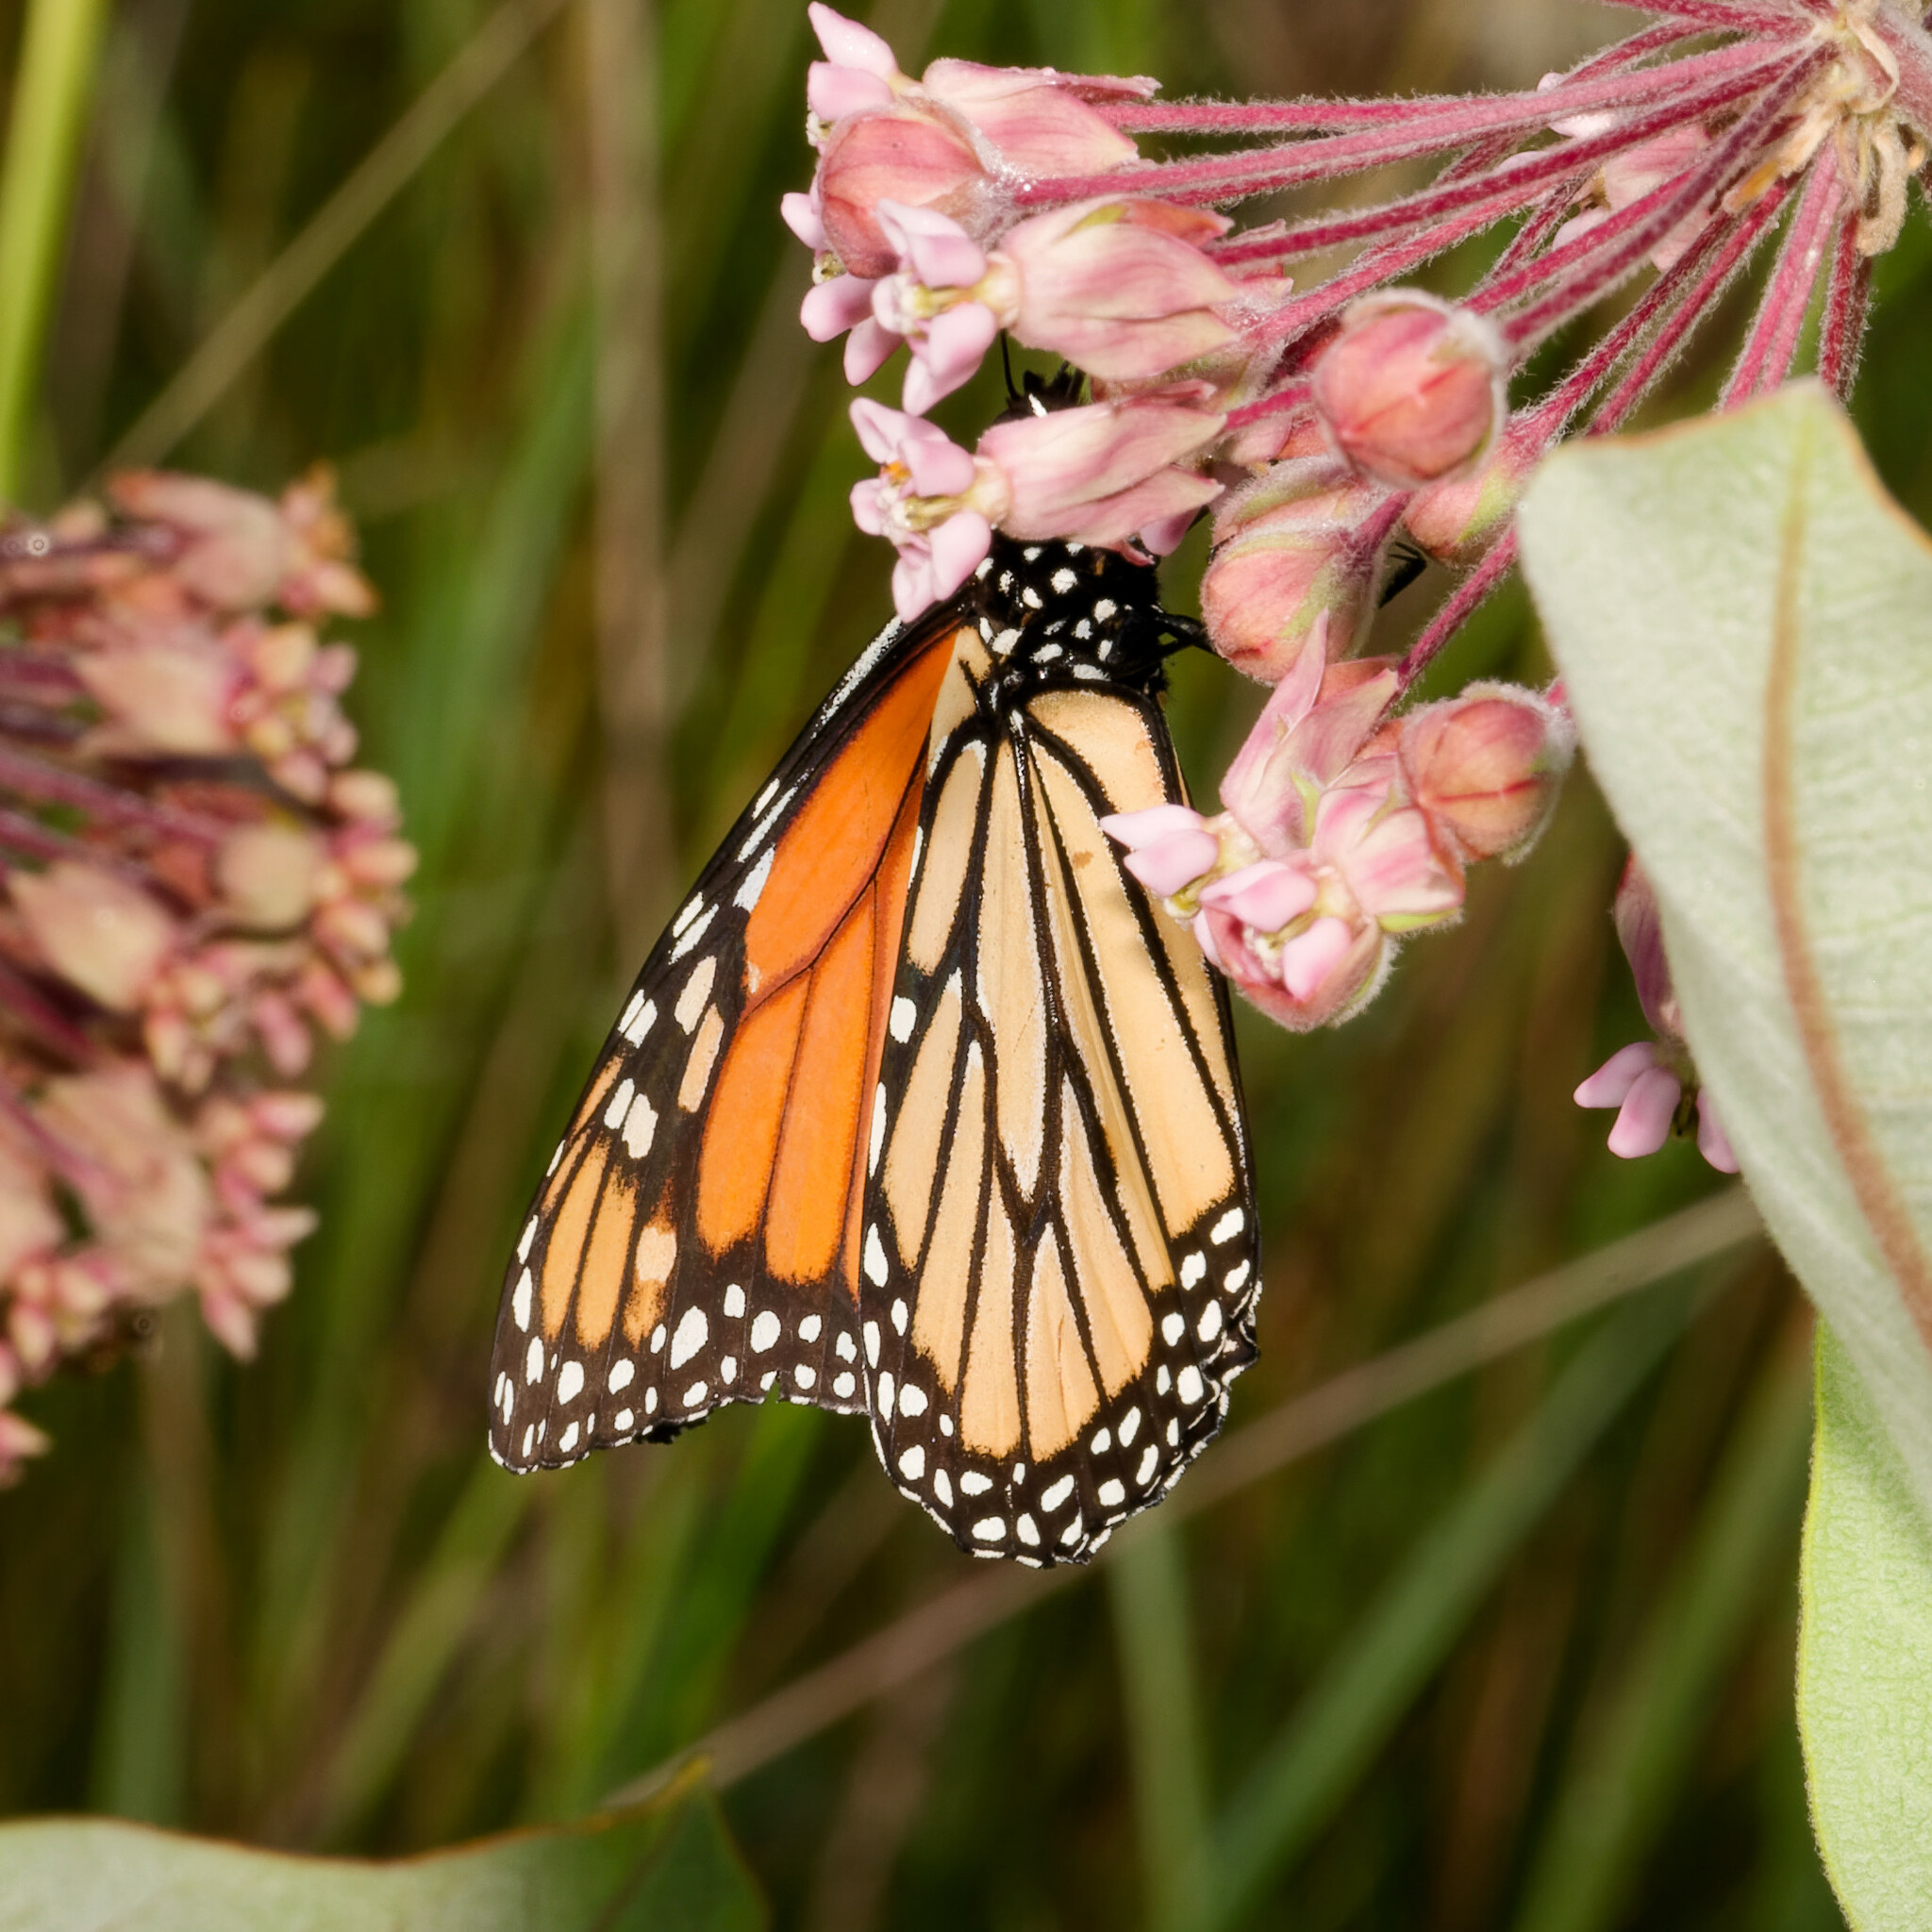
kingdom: Animalia
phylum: Arthropoda
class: Insecta
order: Lepidoptera
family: Nymphalidae
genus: Danaus
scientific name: Danaus plexippus
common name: Monarch
